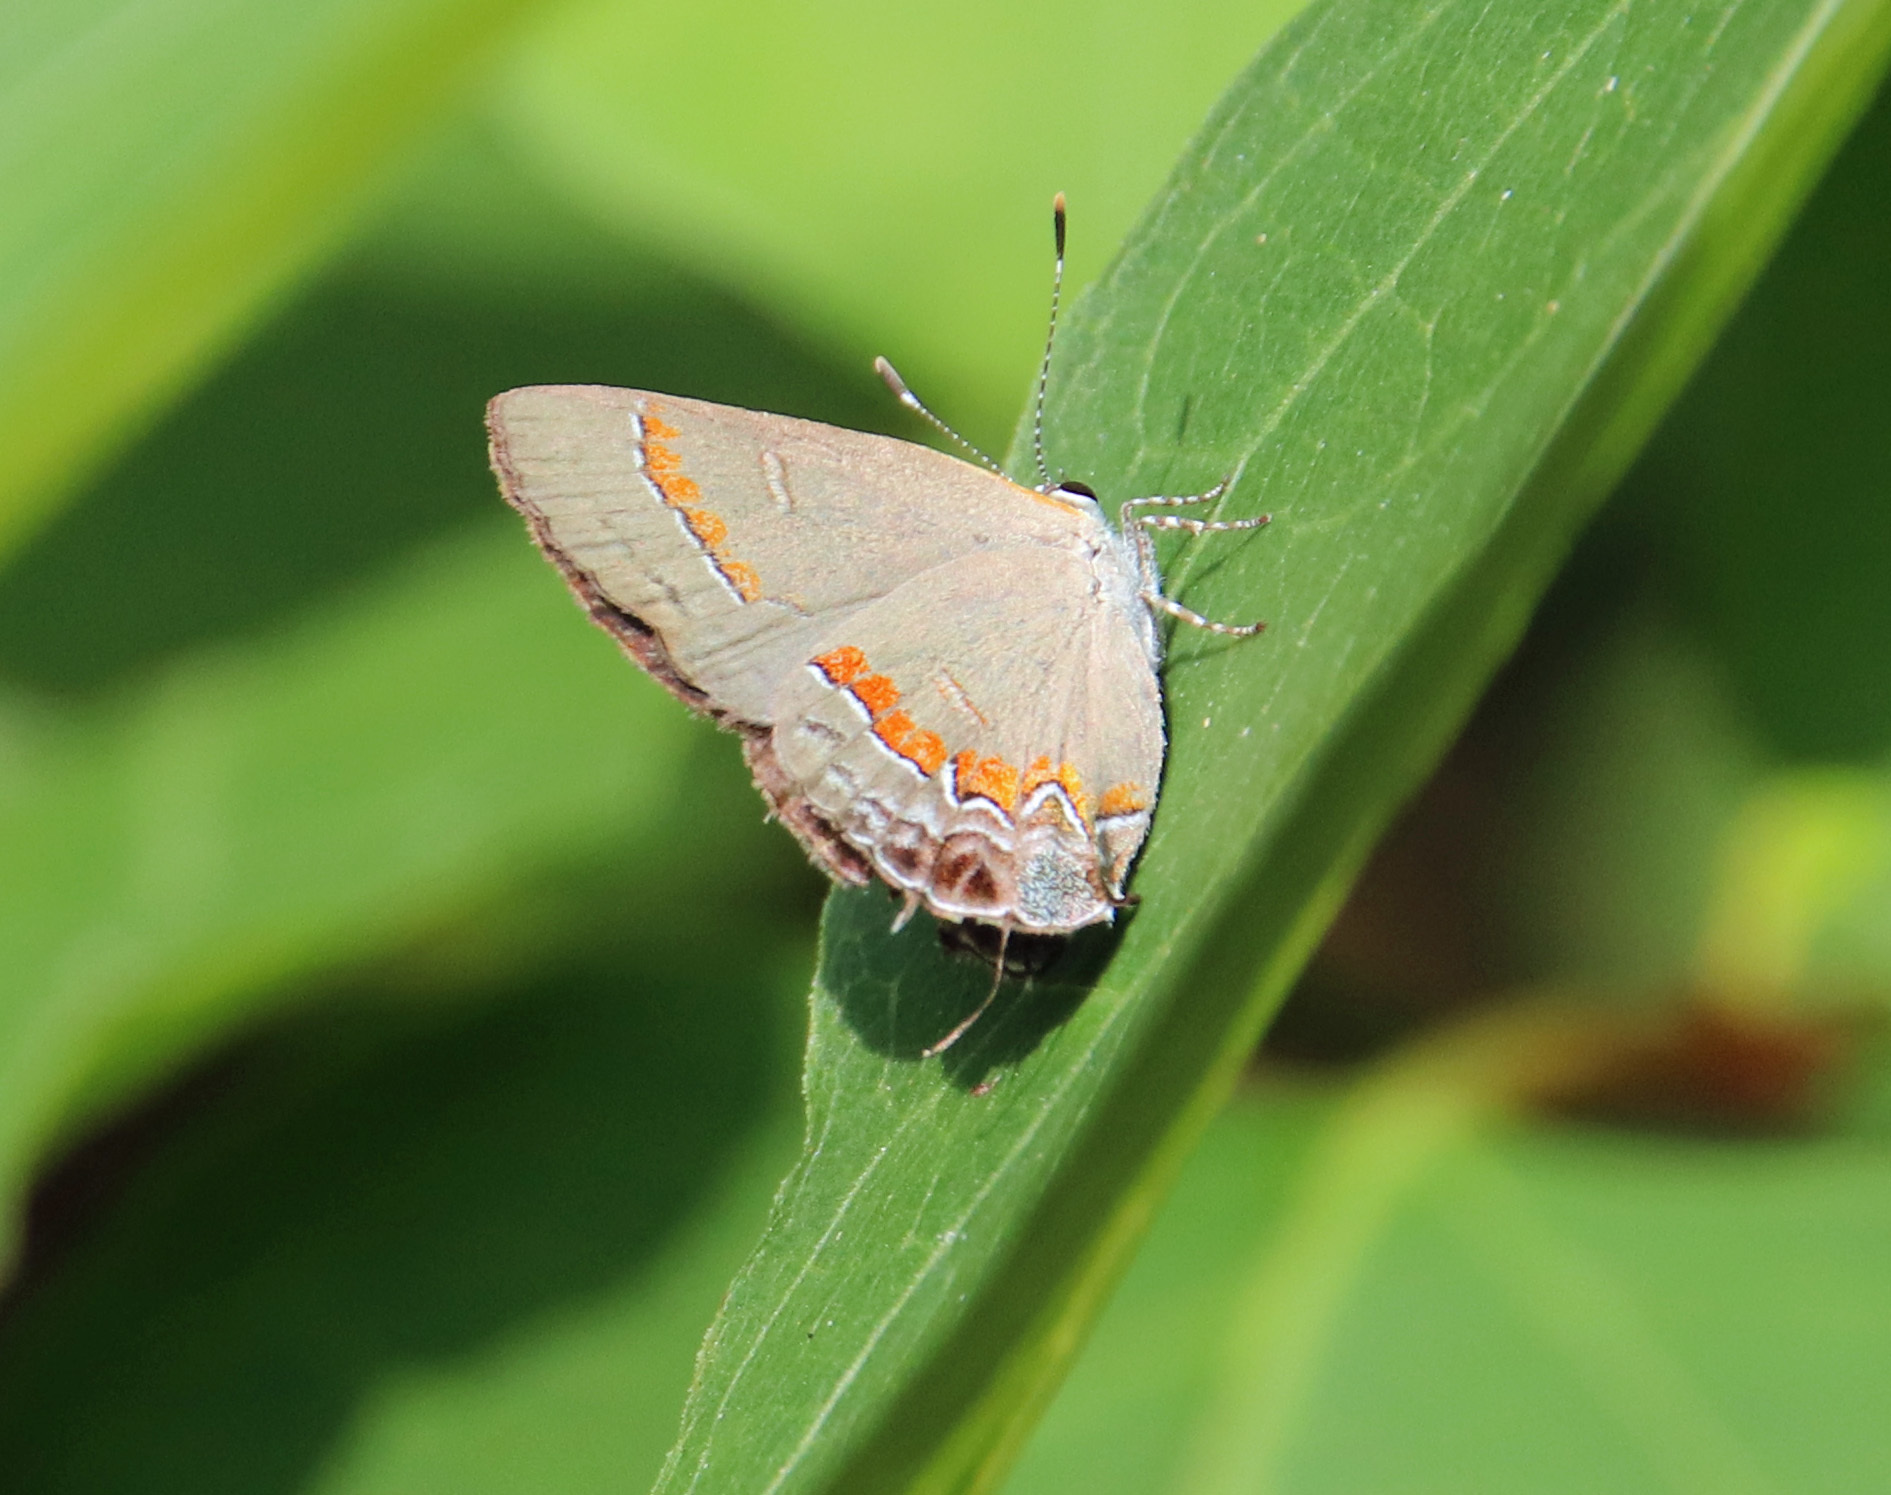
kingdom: Animalia
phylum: Arthropoda
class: Insecta
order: Lepidoptera
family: Lycaenidae
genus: Calycopis
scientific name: Calycopis cecrops
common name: Red-banded hairstreak
